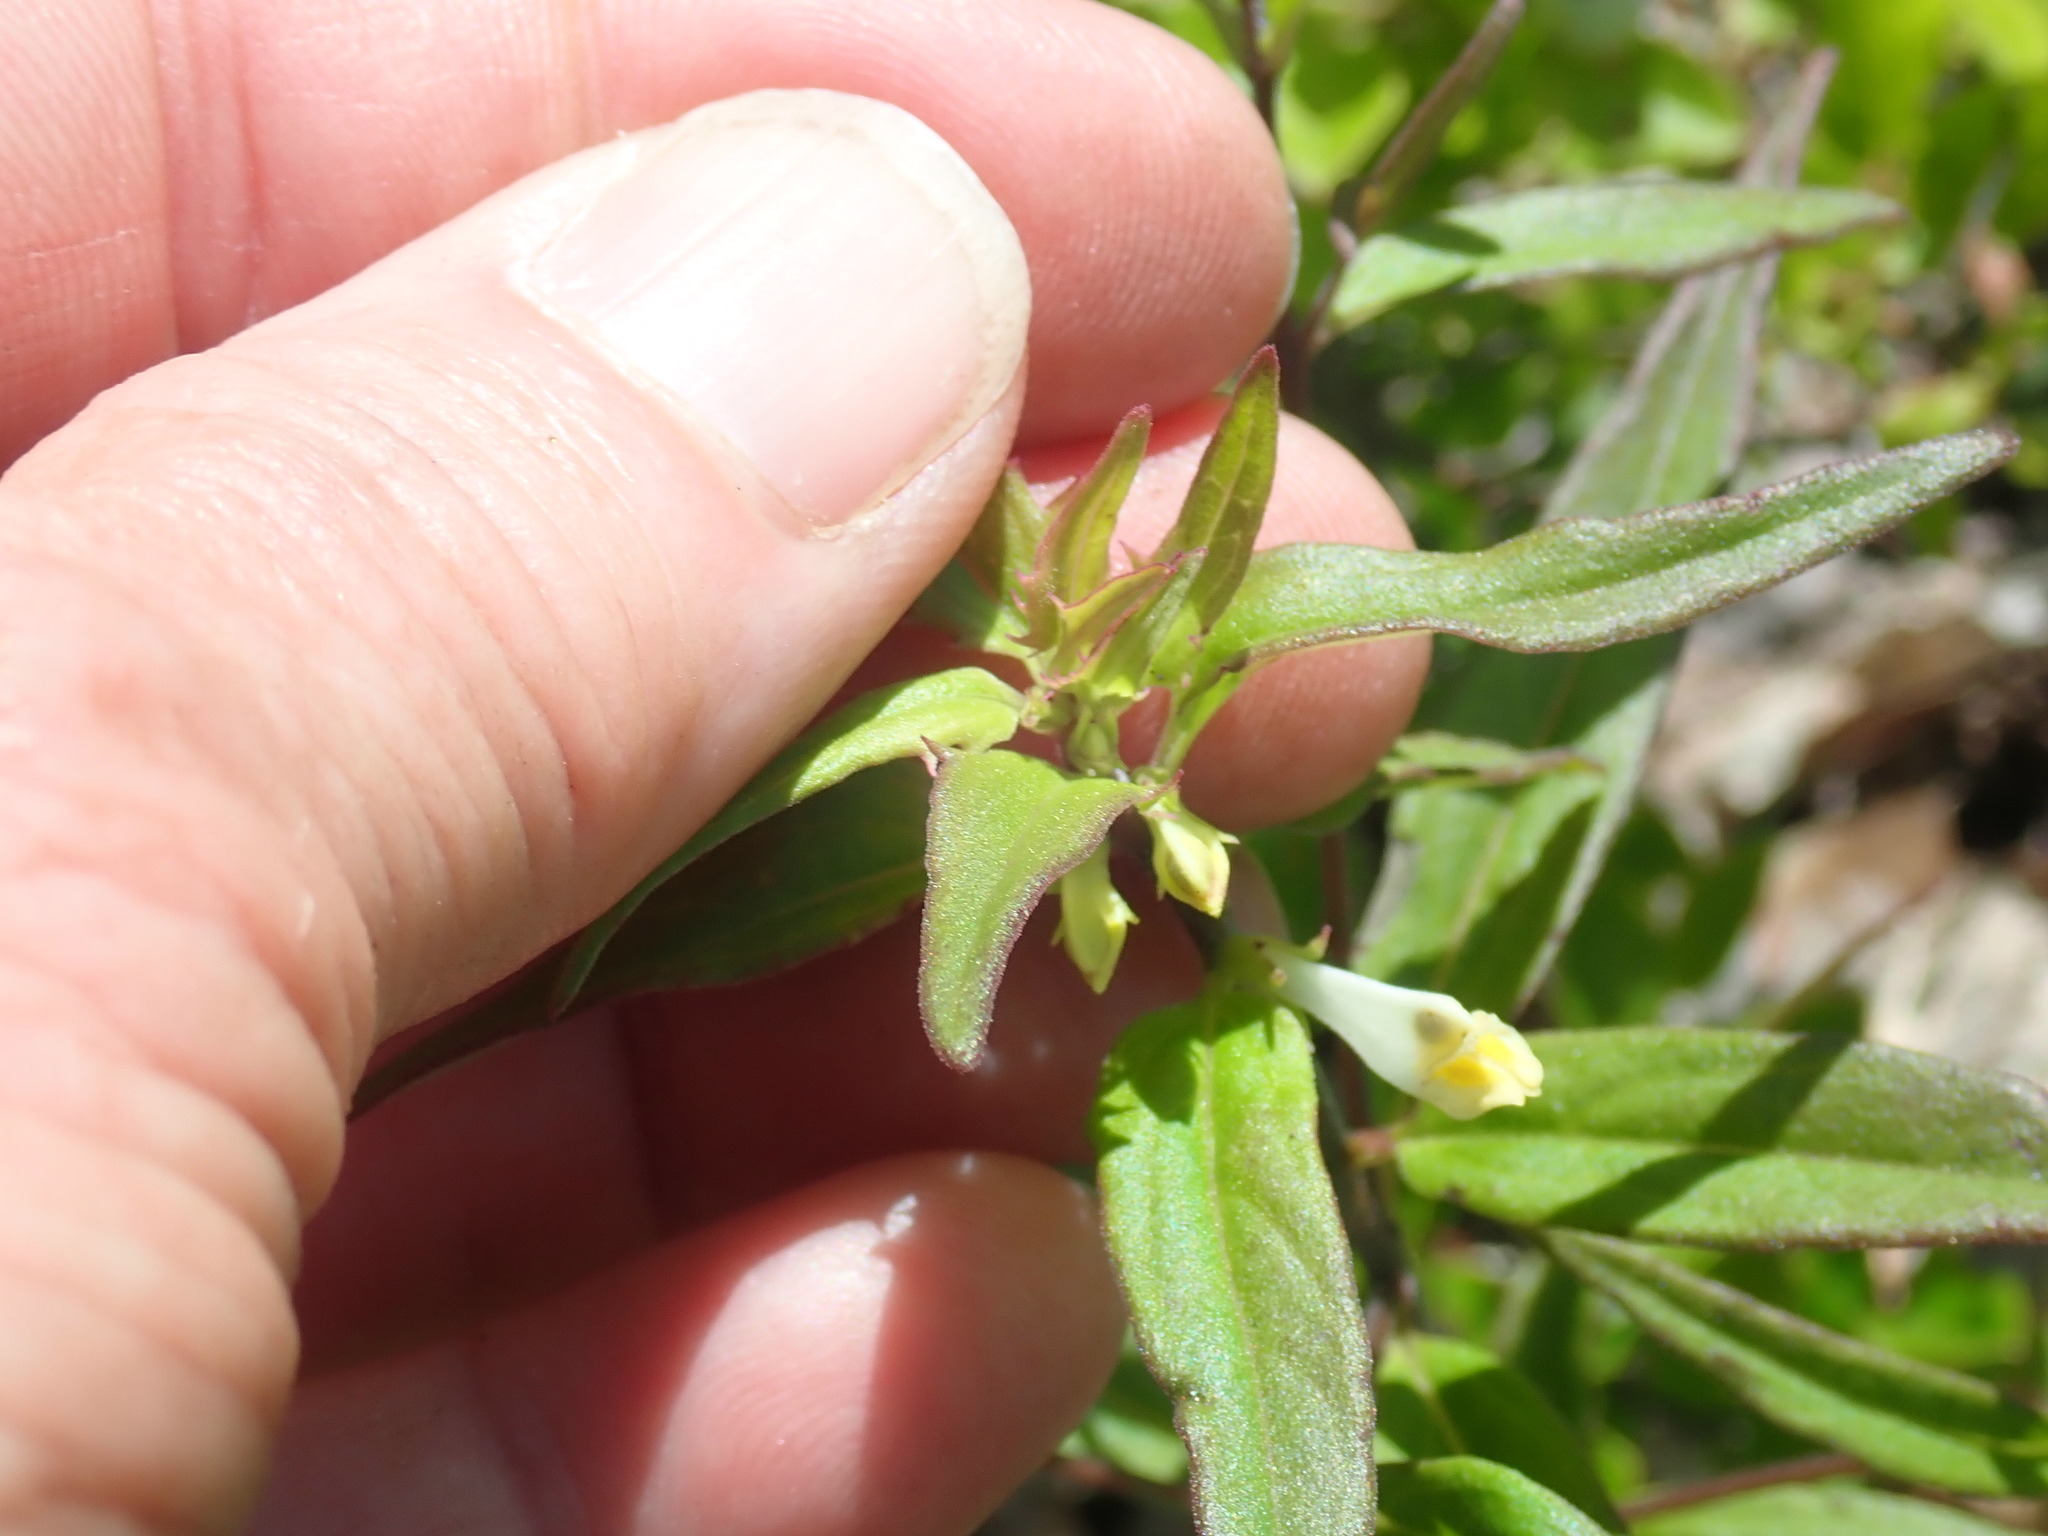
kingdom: Plantae
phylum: Tracheophyta
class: Magnoliopsida
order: Lamiales
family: Orobanchaceae
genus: Melampyrum
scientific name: Melampyrum lineare
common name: American cow-wheat
